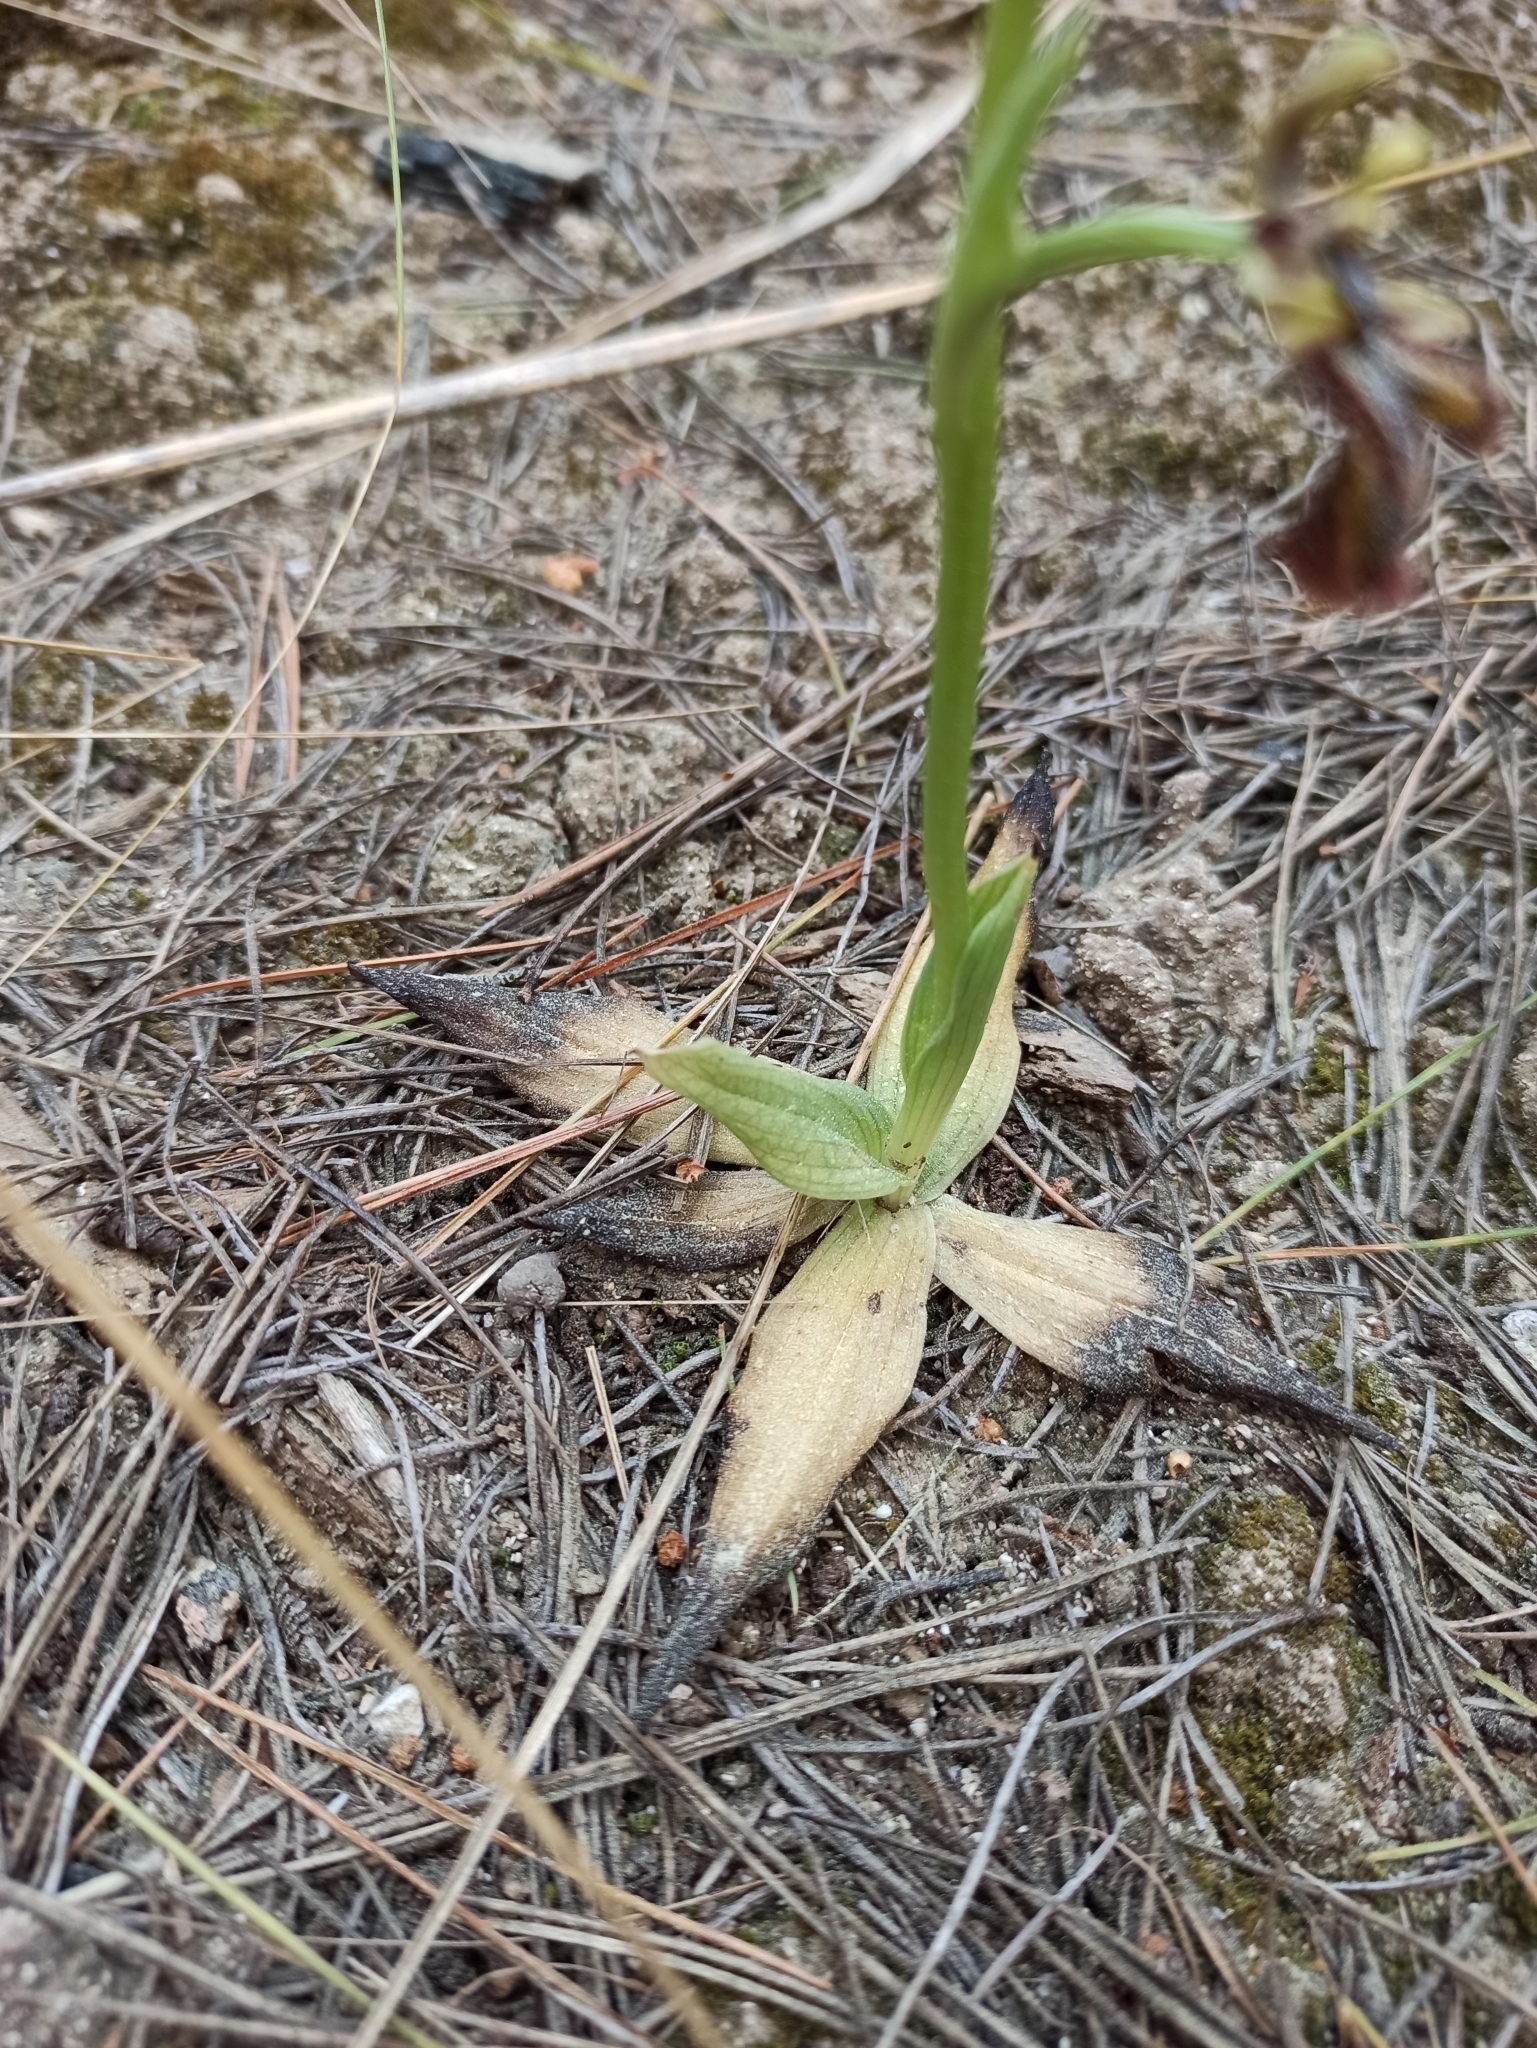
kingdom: Plantae
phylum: Tracheophyta
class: Liliopsida
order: Asparagales
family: Orchidaceae
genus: Ophrys
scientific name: Ophrys speculum
